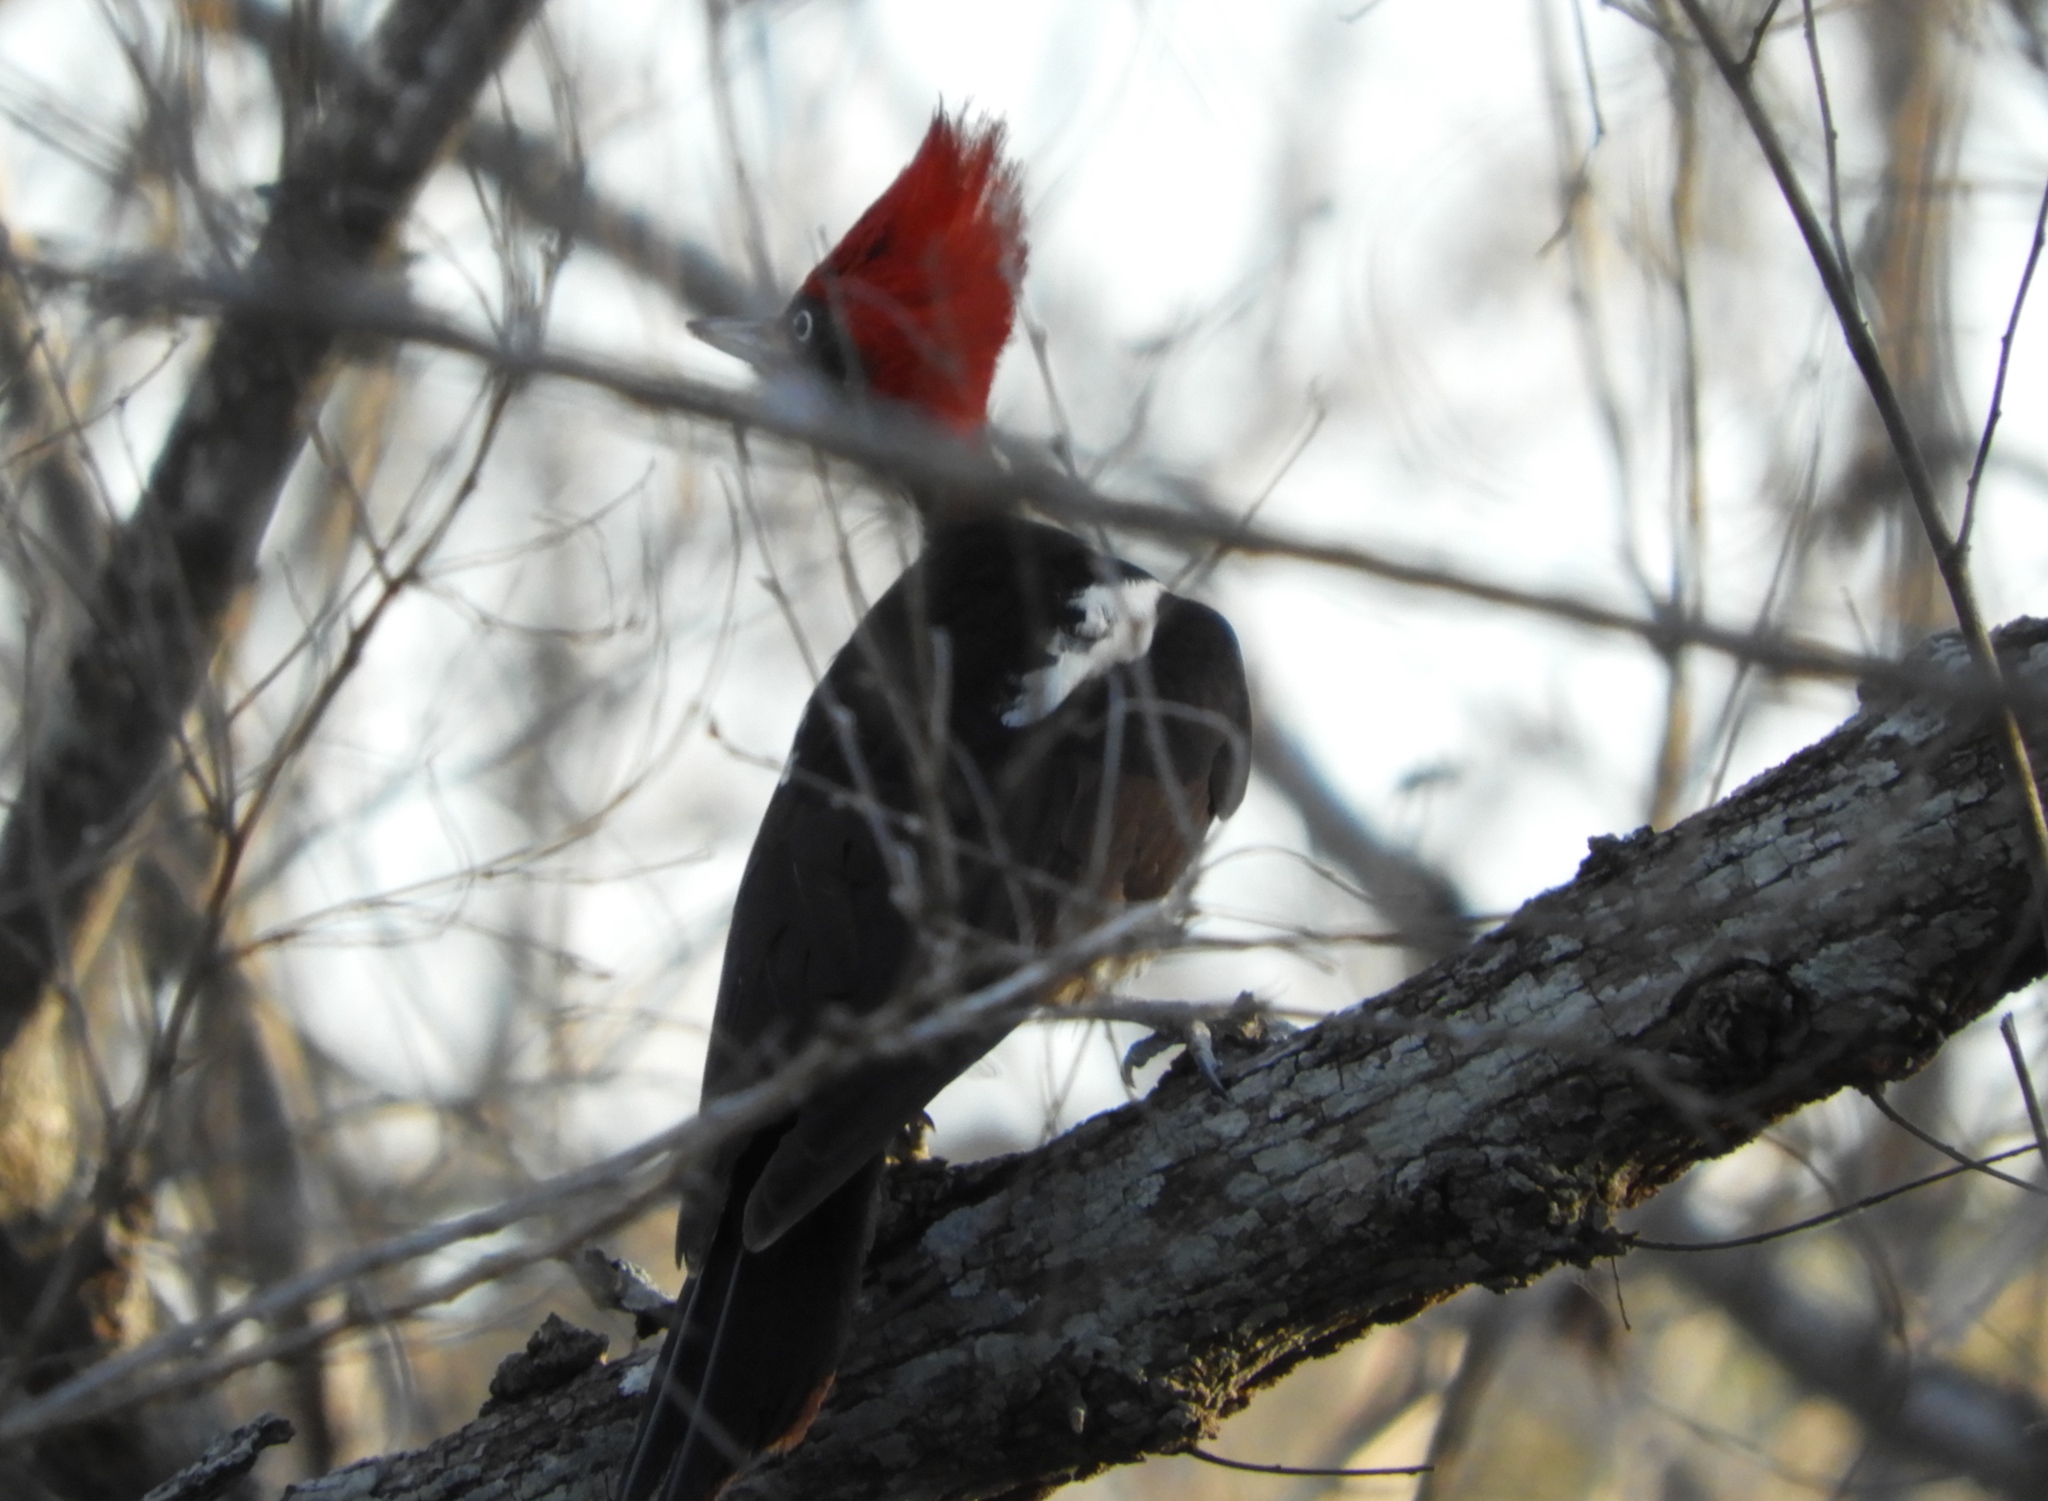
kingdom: Animalia
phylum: Chordata
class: Aves
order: Piciformes
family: Picidae
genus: Dryocopus
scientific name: Dryocopus lineatus
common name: Lineated woodpecker
